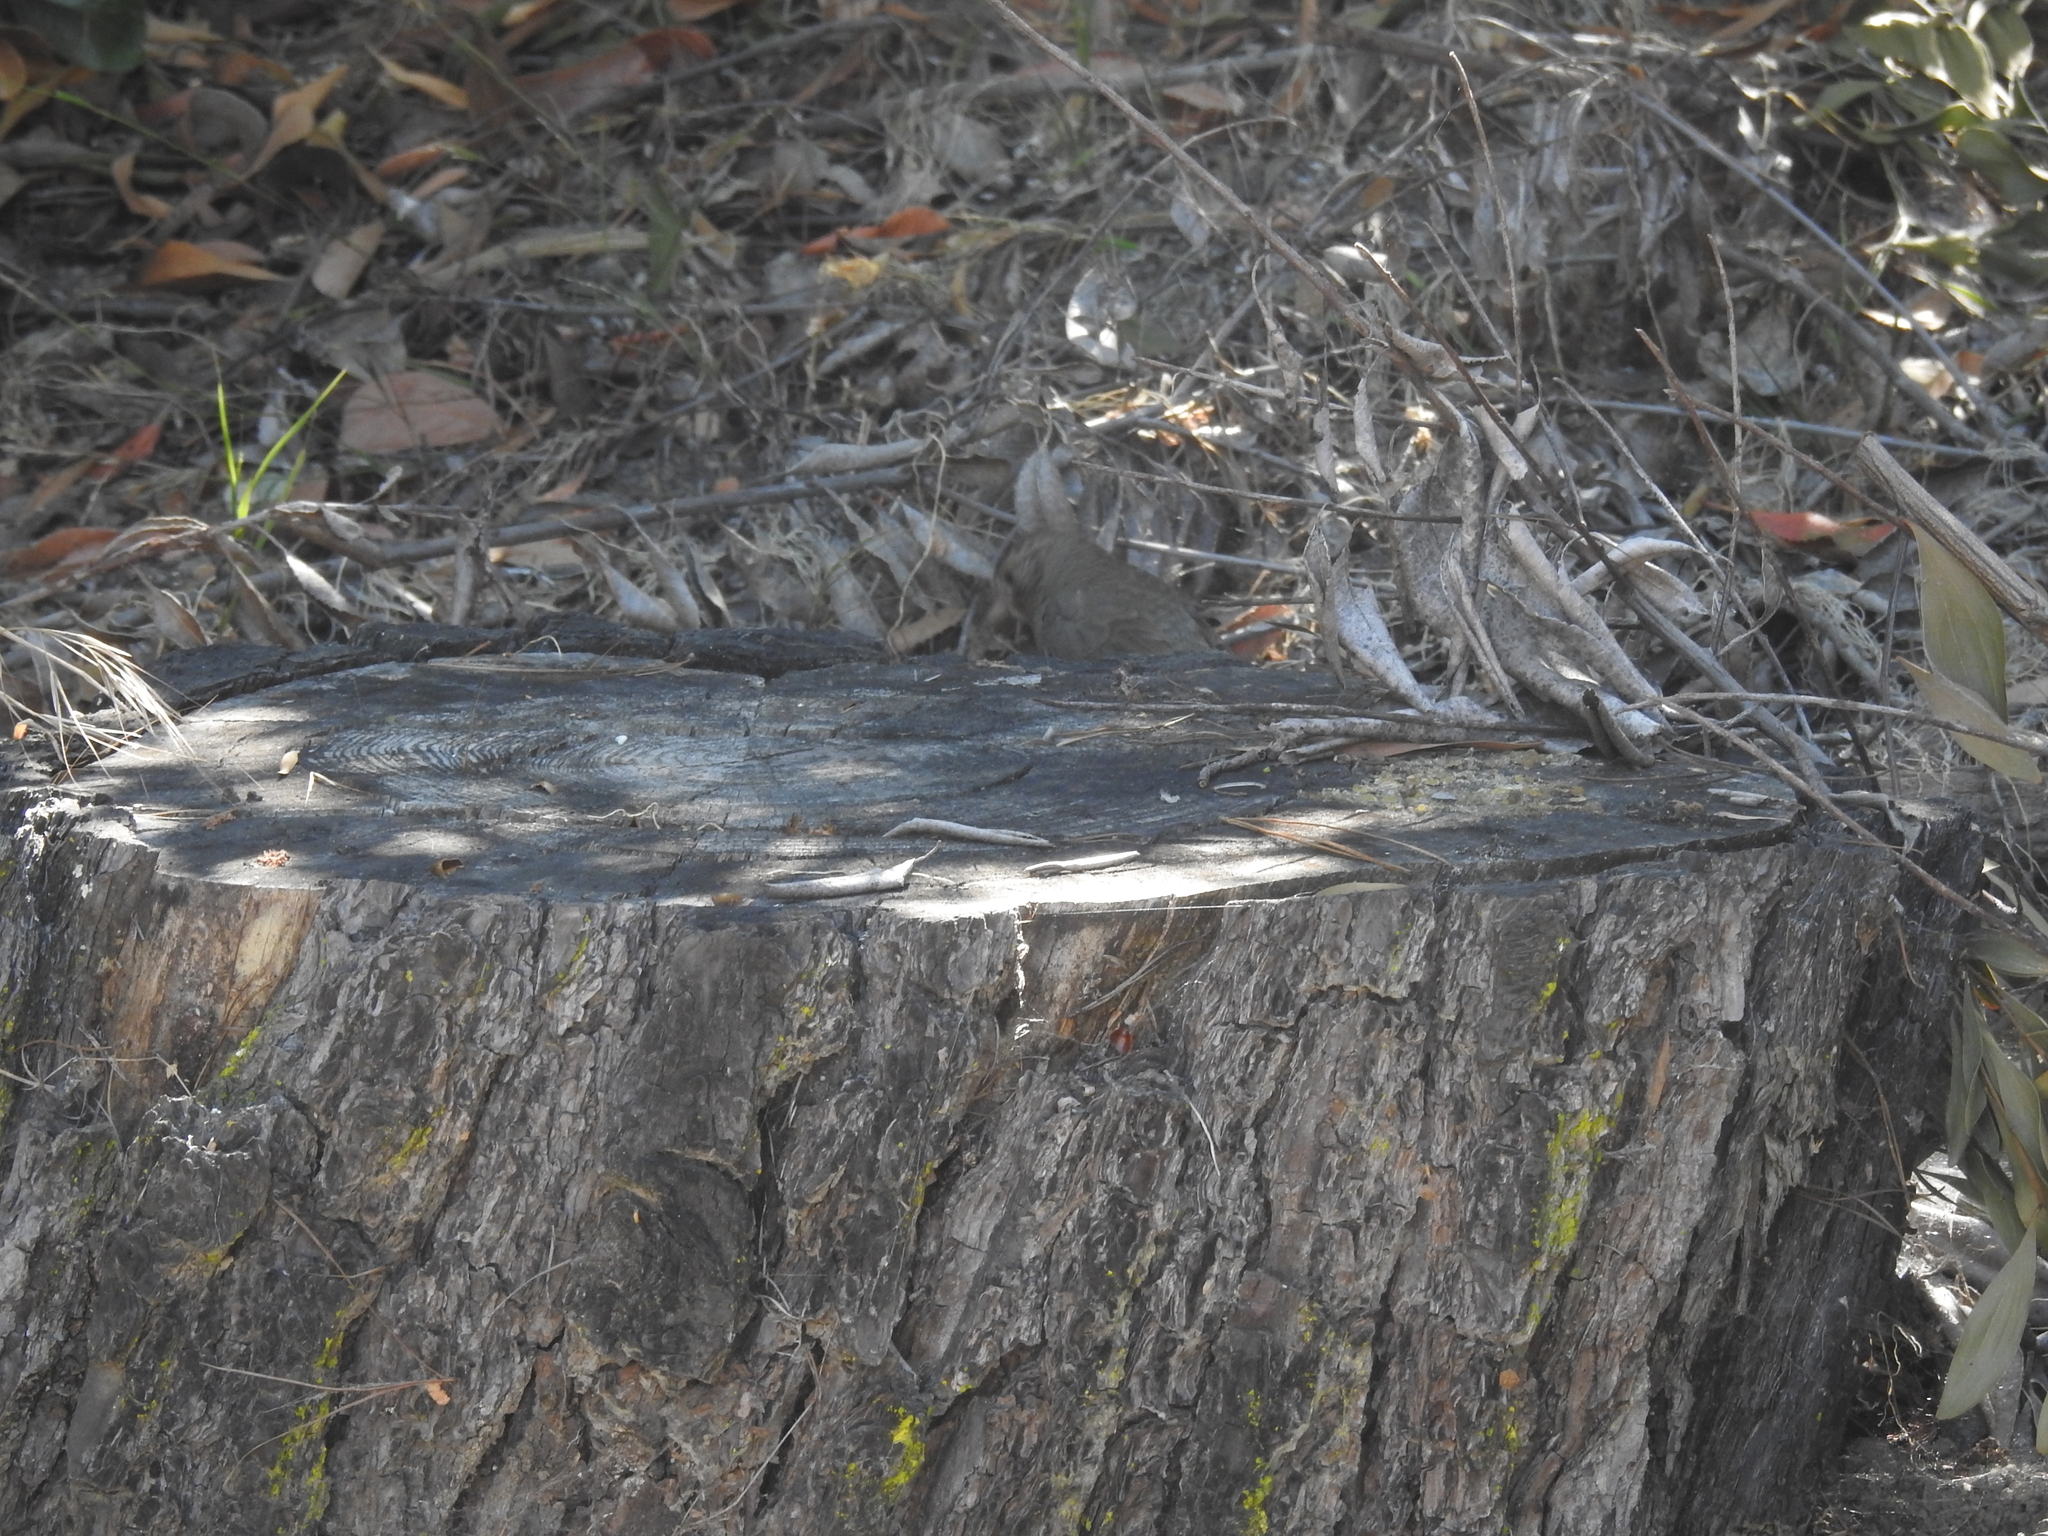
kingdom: Animalia
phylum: Chordata
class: Aves
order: Passeriformes
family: Passerellidae
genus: Melozone
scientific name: Melozone crissalis
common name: California towhee
